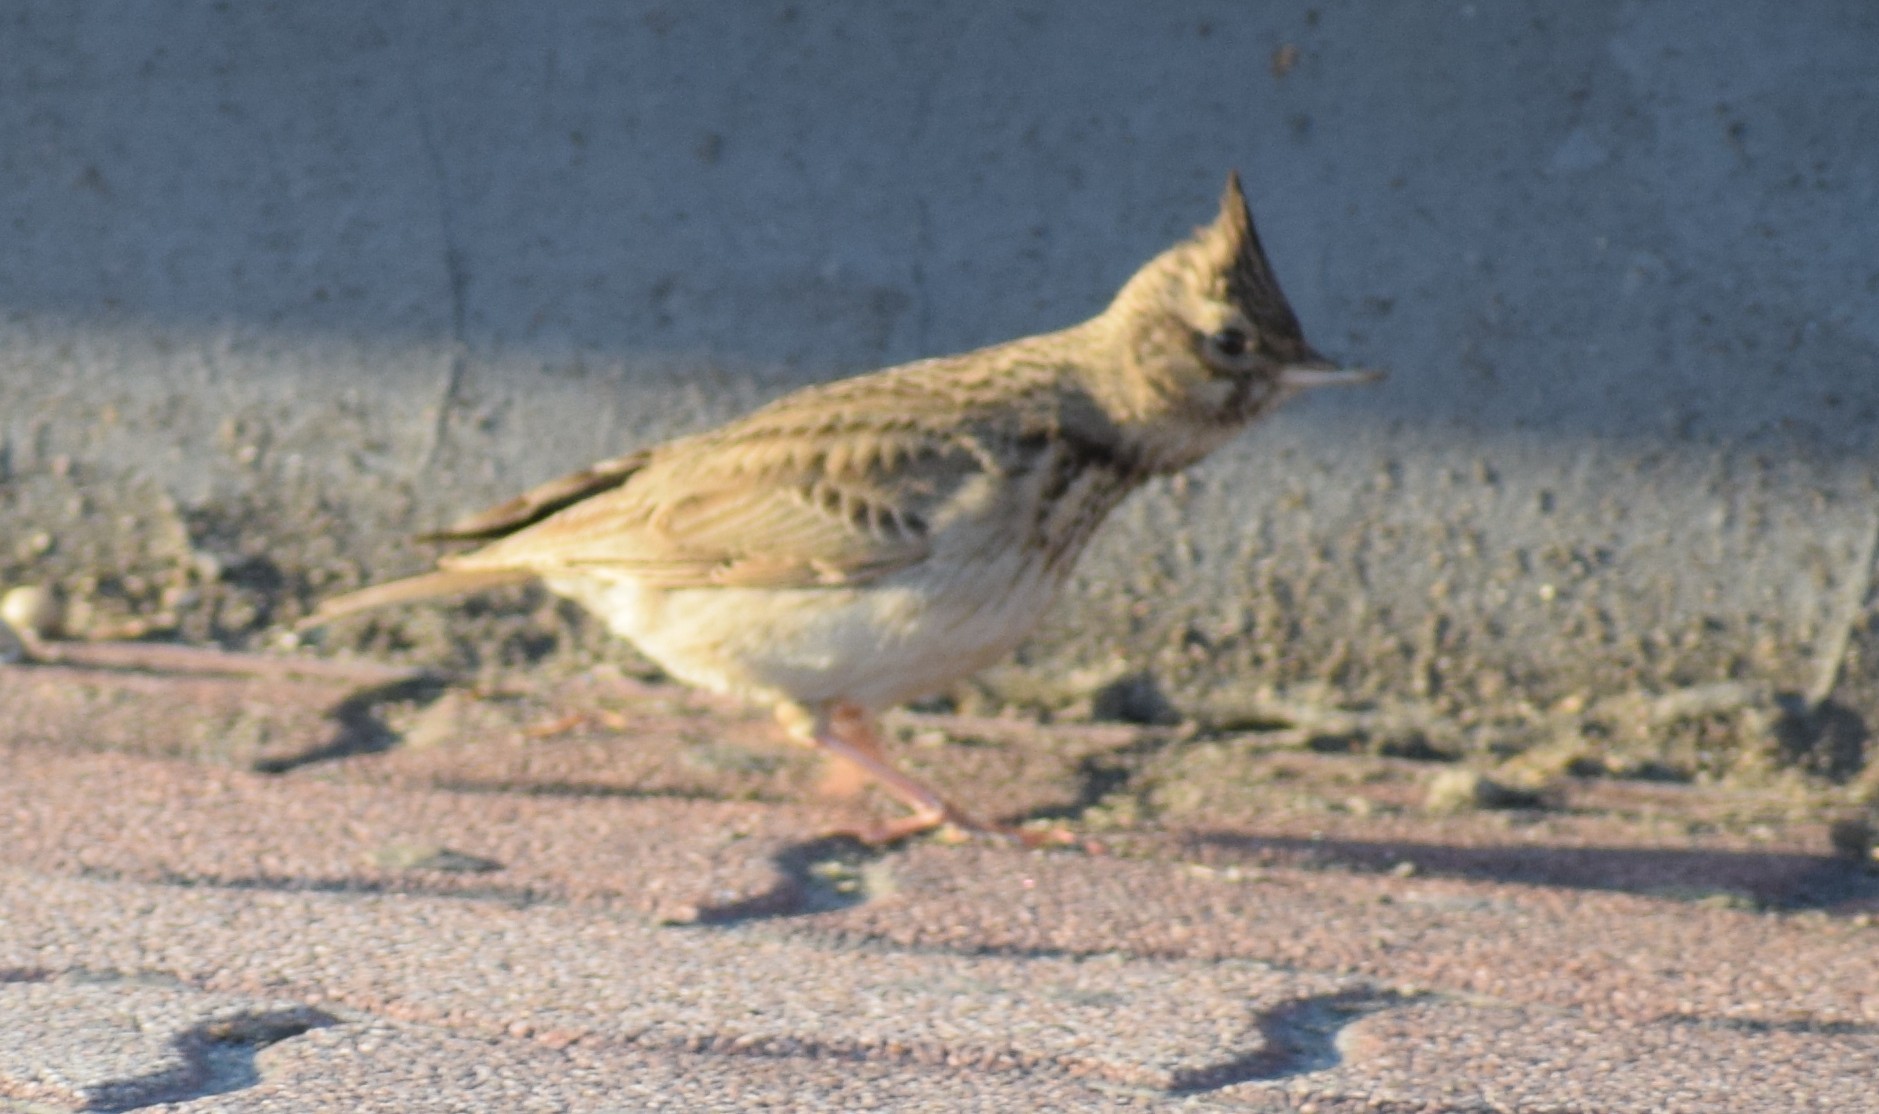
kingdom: Animalia
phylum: Chordata
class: Aves
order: Passeriformes
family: Alaudidae
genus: Galerida
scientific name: Galerida cristata
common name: Crested lark
